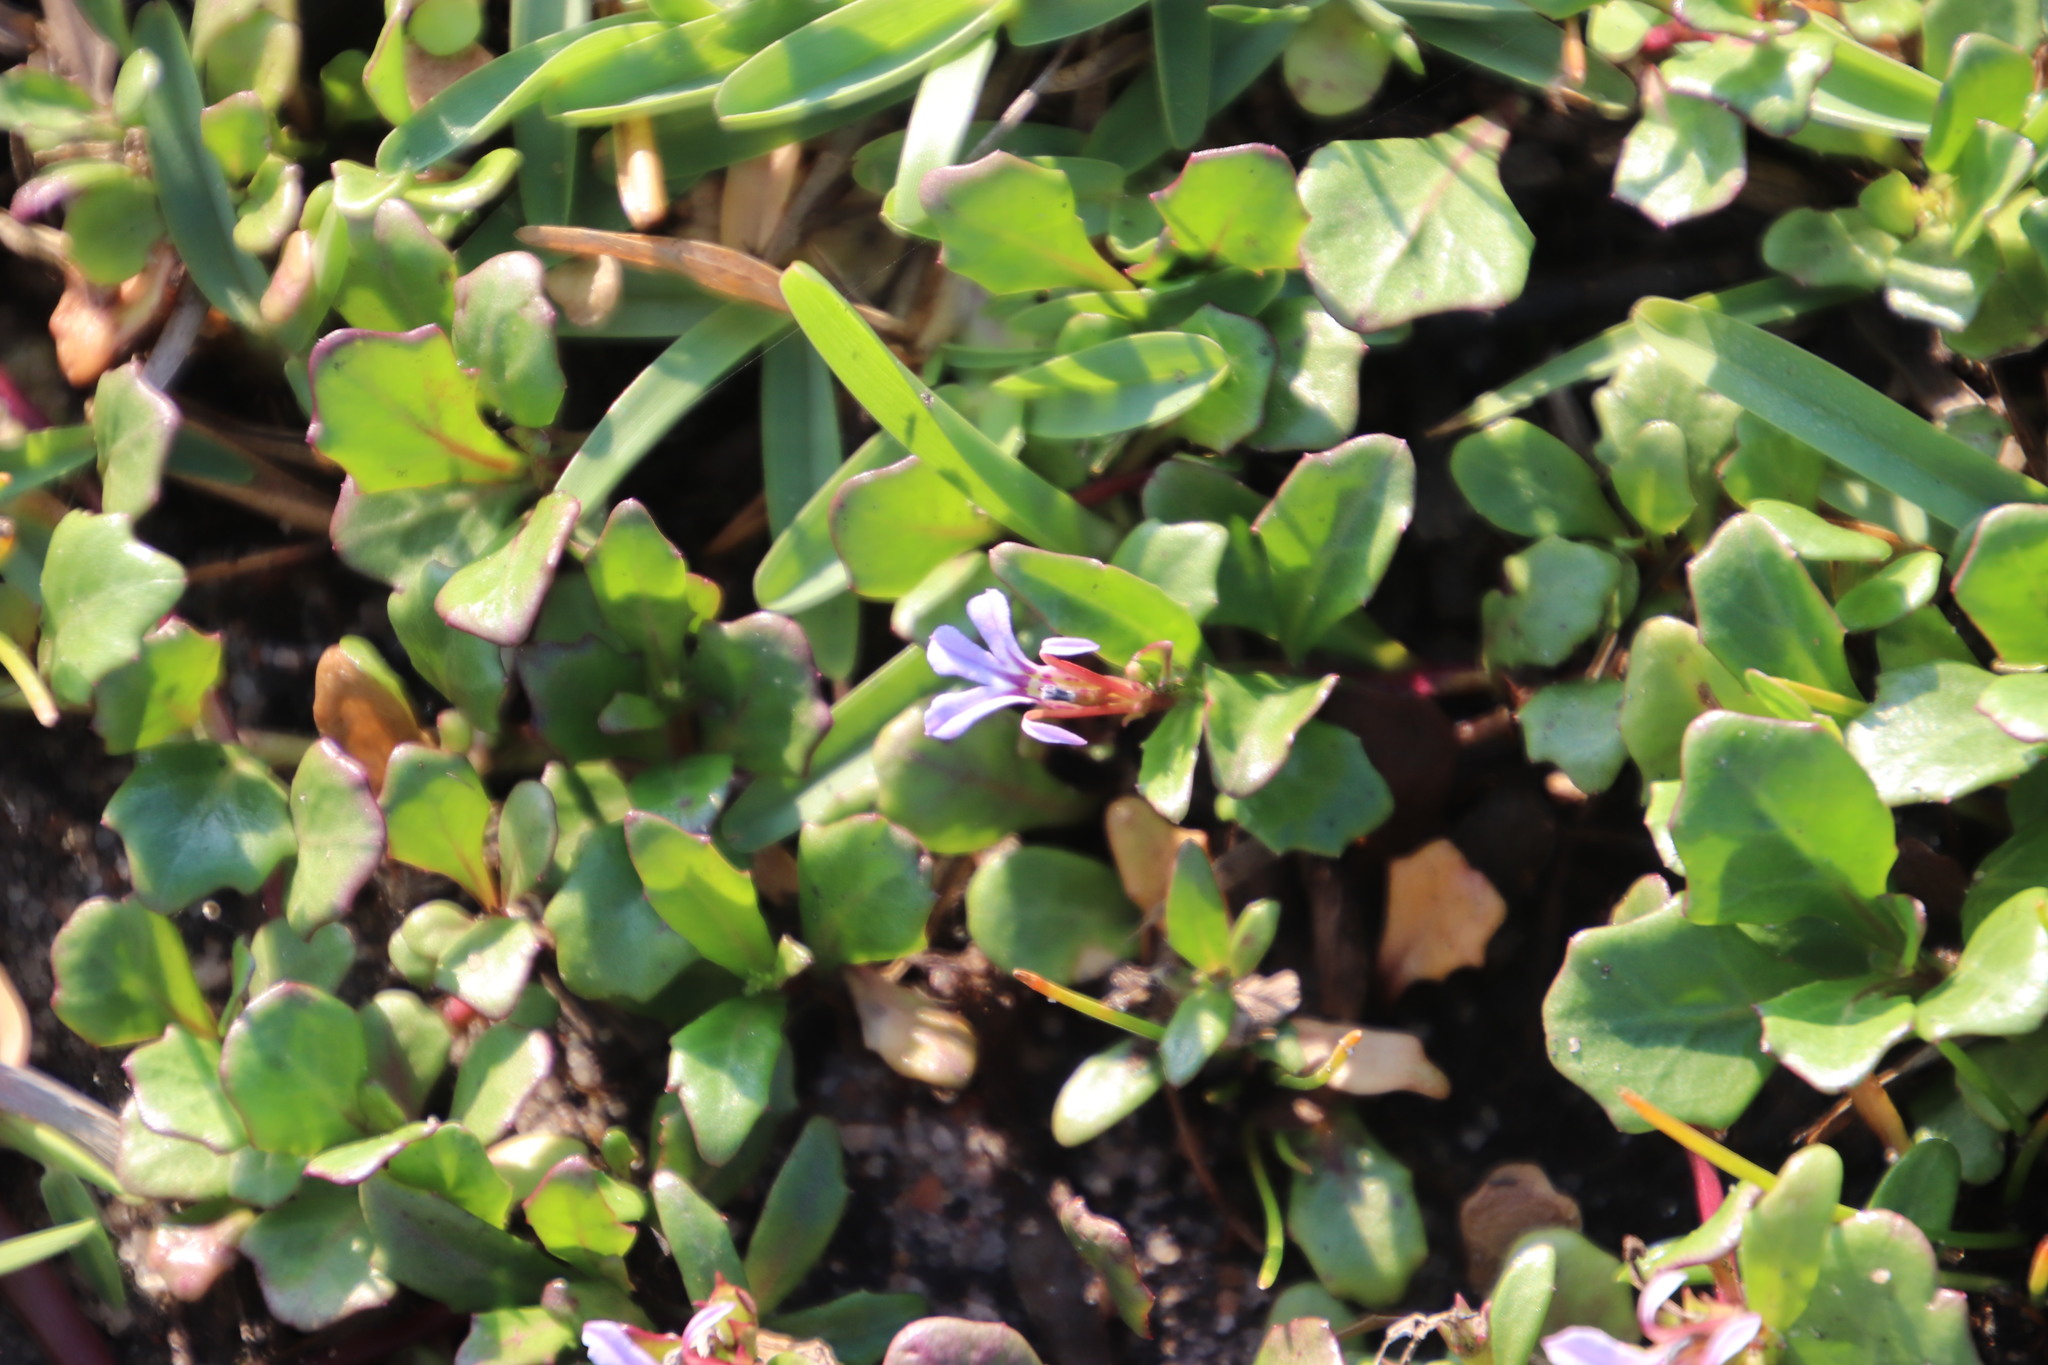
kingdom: Plantae
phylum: Tracheophyta
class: Magnoliopsida
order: Asterales
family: Campanulaceae
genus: Lobelia
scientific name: Lobelia anceps
